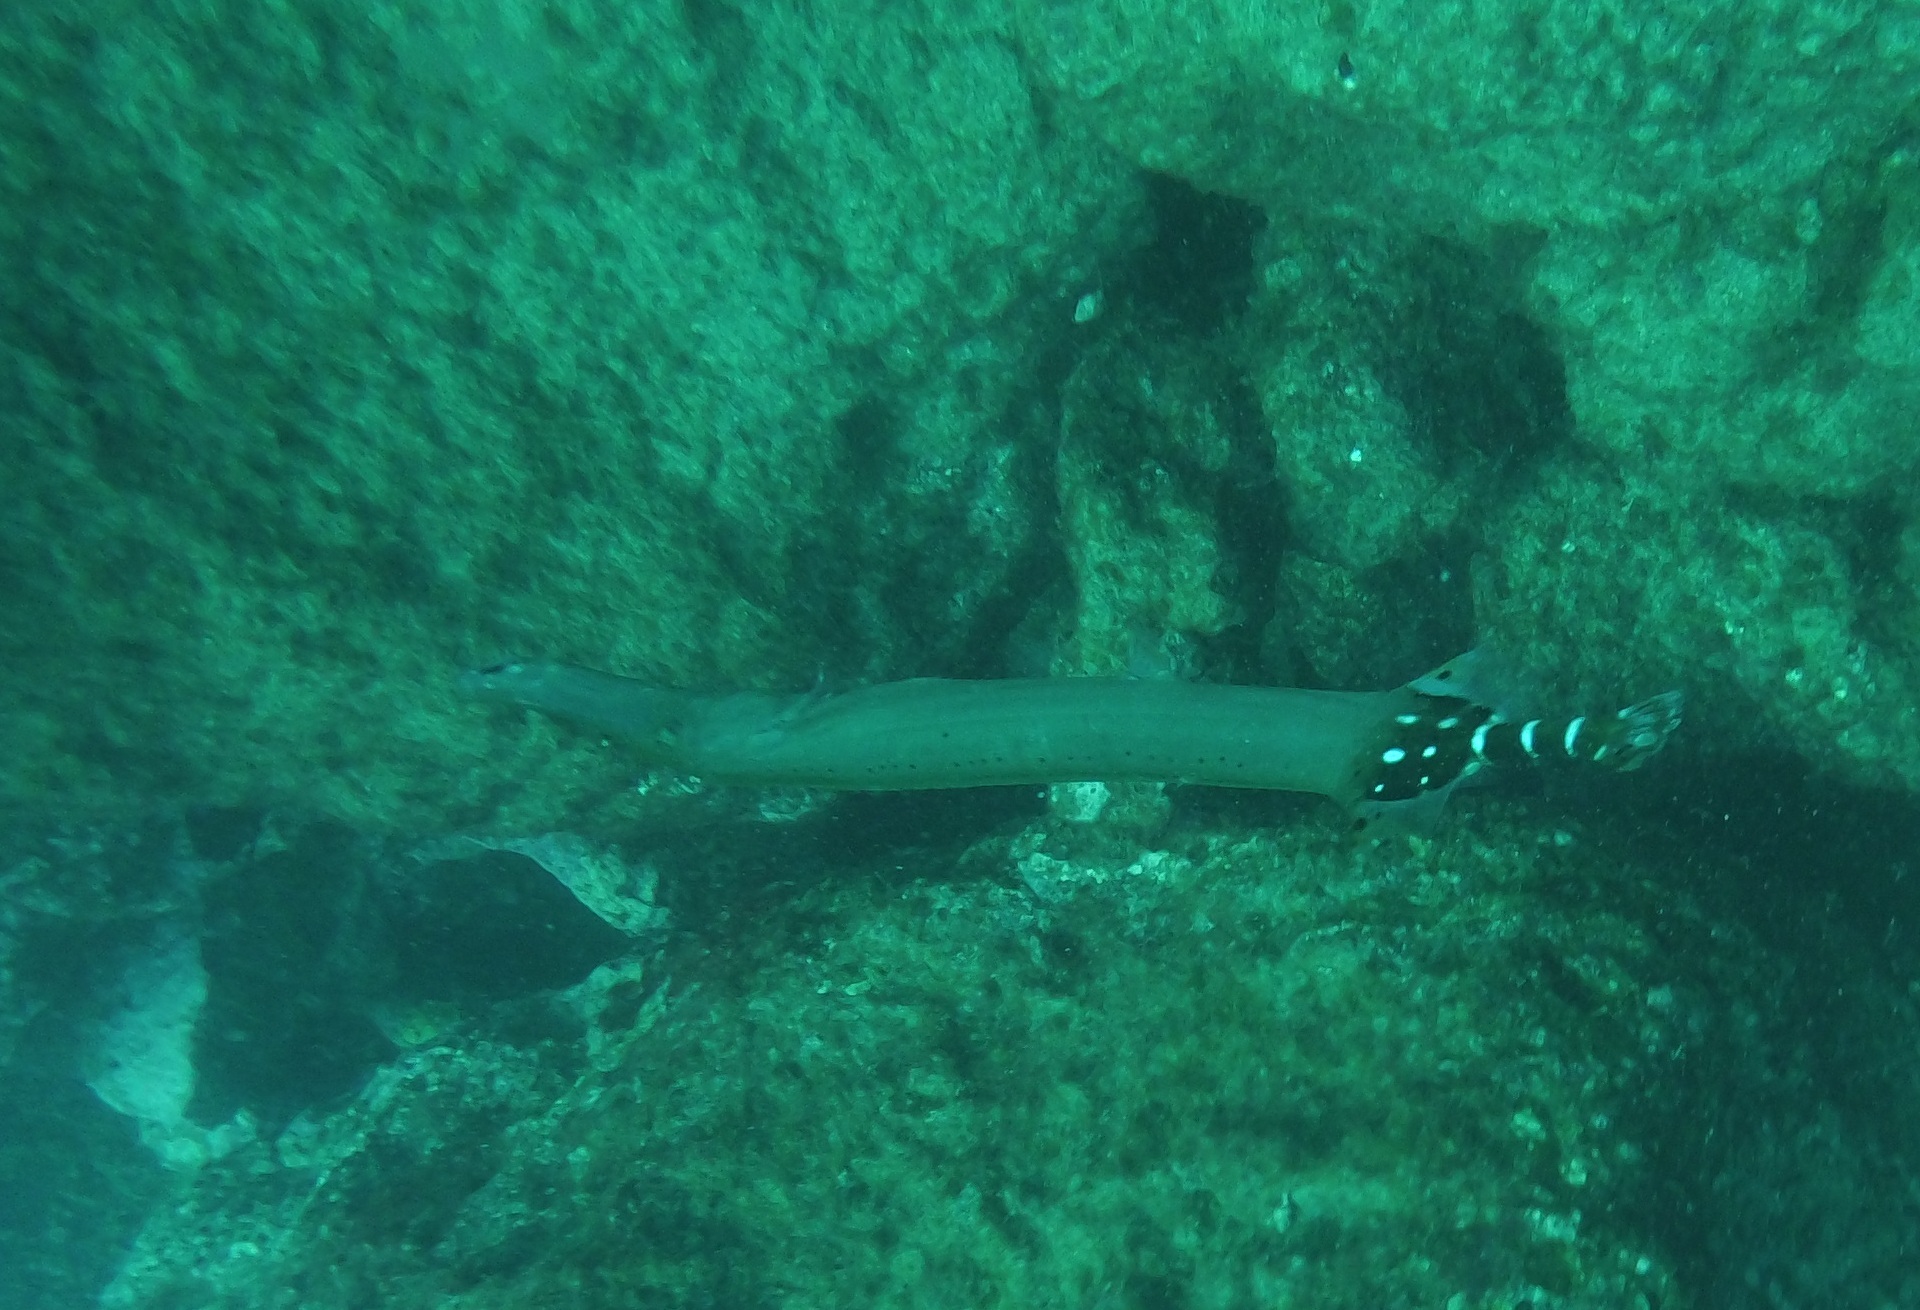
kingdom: Animalia
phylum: Chordata
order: Syngnathiformes
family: Aulostomidae
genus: Aulostomus
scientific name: Aulostomus strigosus
